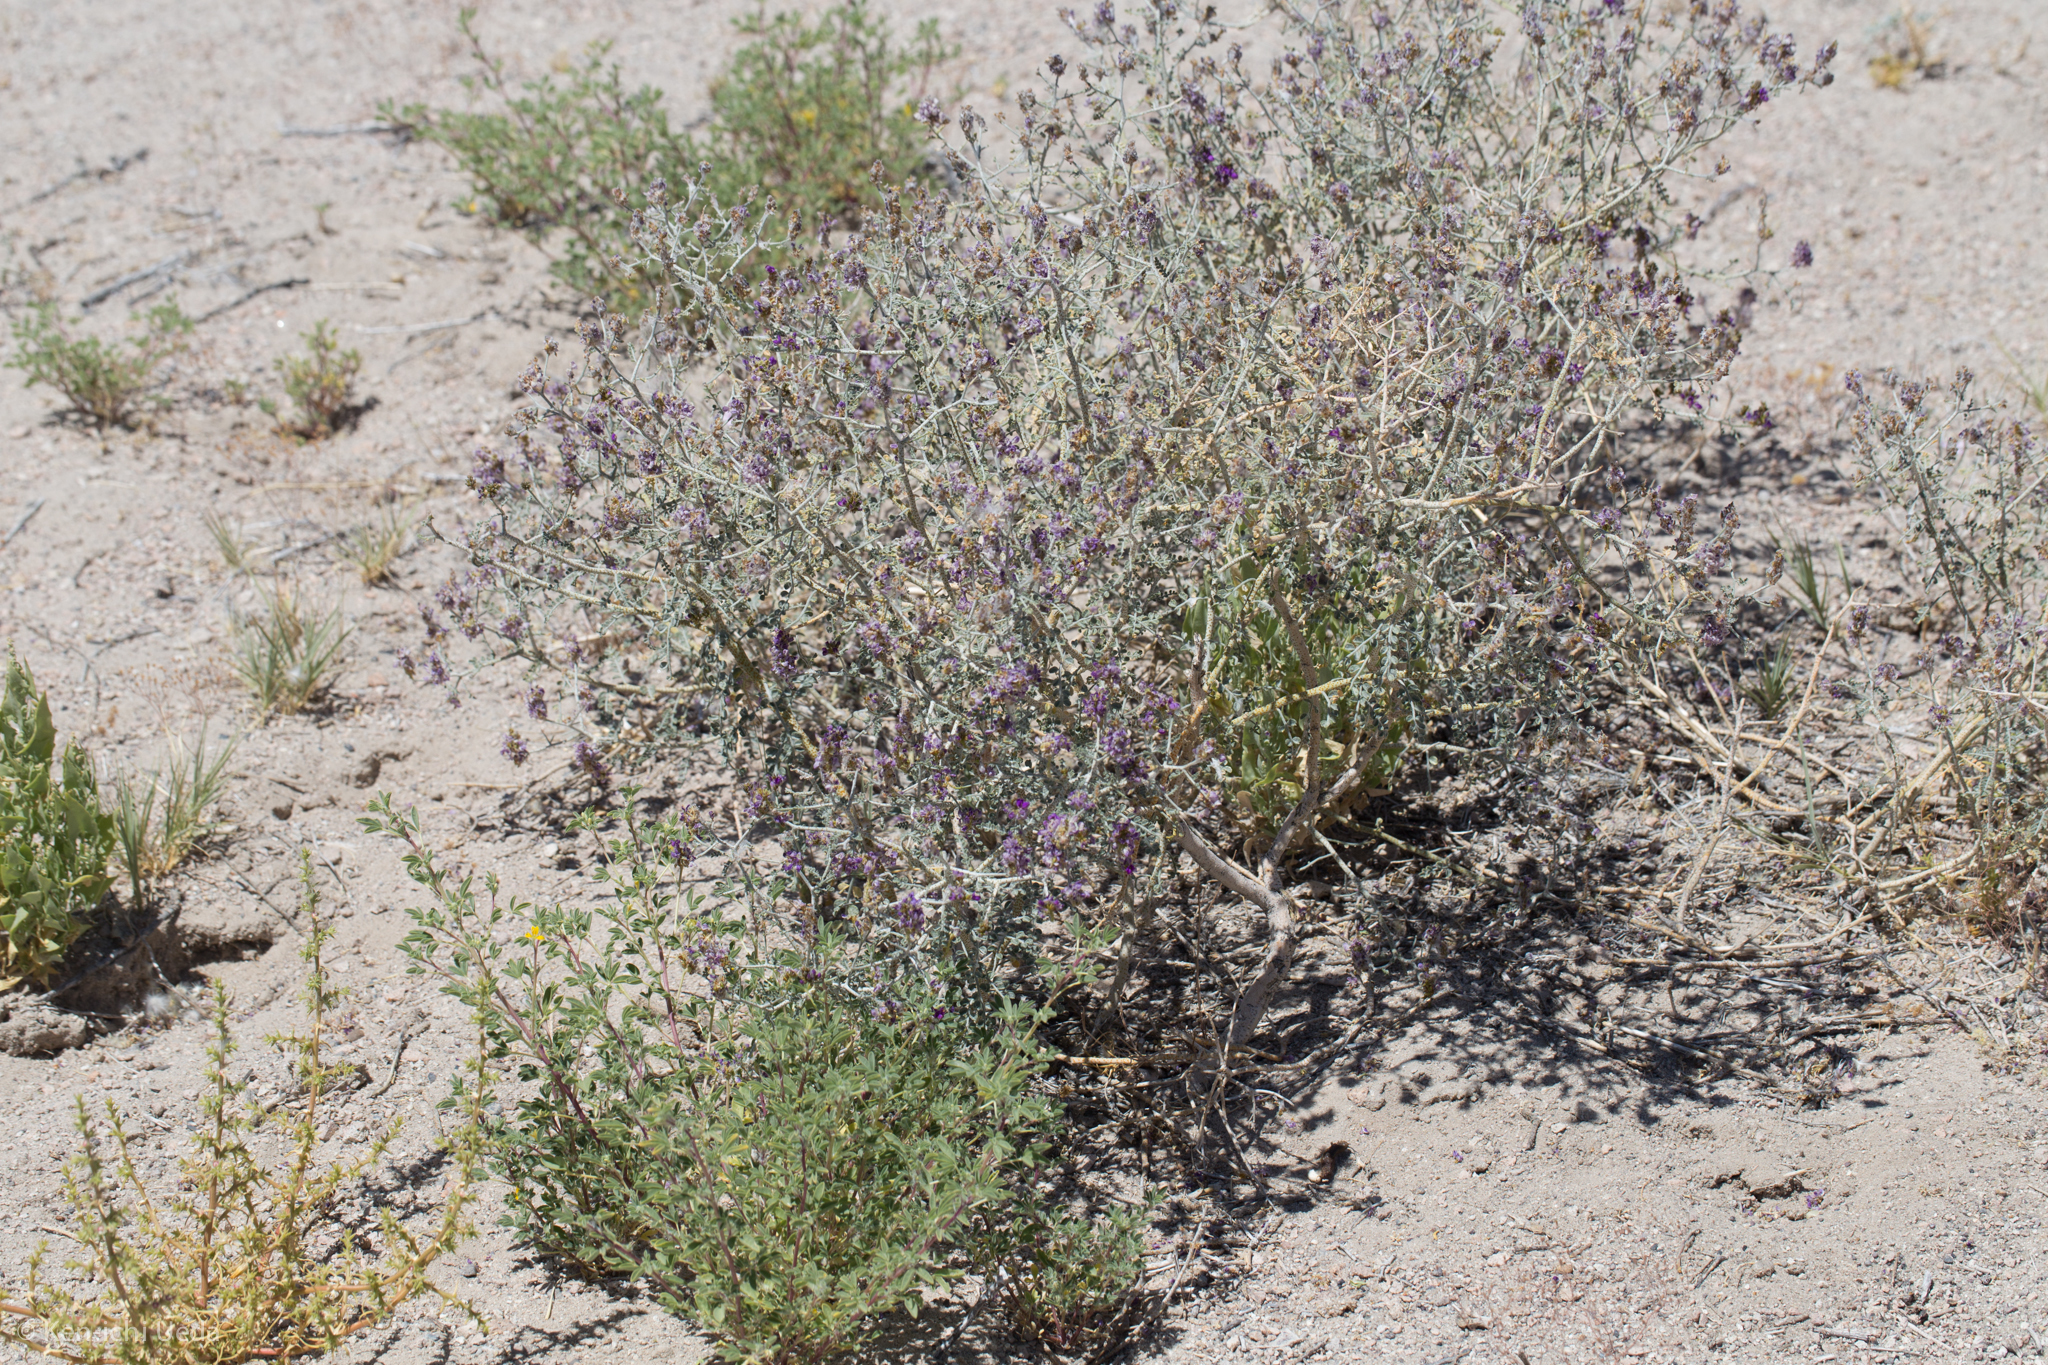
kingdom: Plantae
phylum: Tracheophyta
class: Magnoliopsida
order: Fabales
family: Fabaceae
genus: Psorothamnus
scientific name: Psorothamnus polydenius
